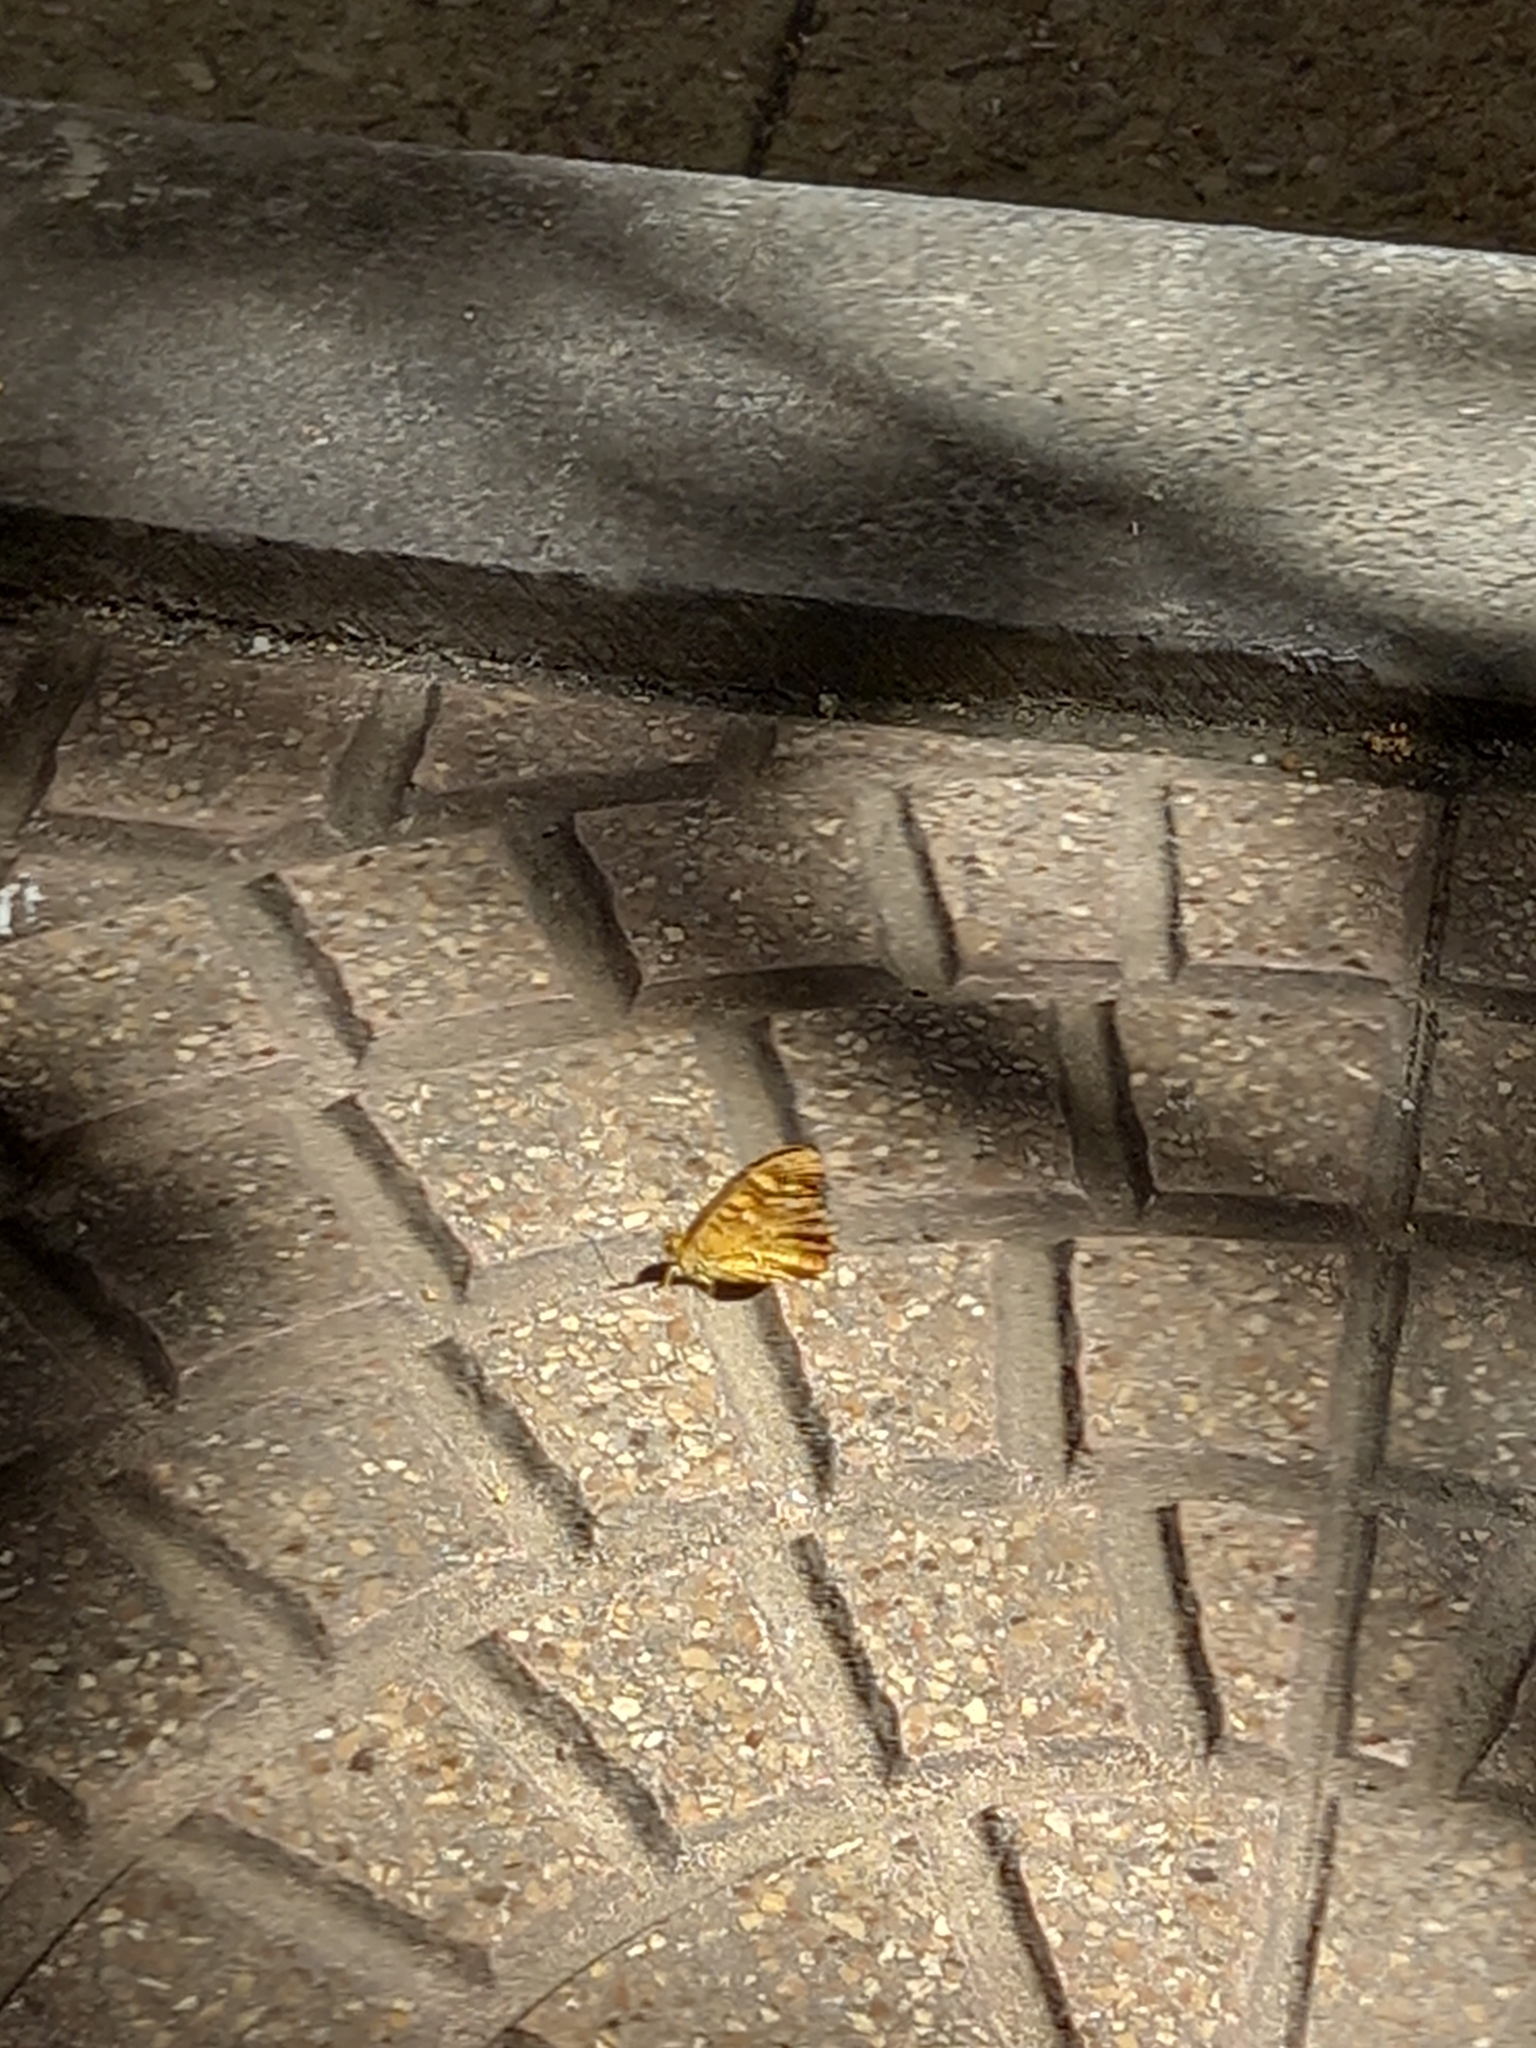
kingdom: Animalia
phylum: Arthropoda
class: Insecta
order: Lepidoptera
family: Nymphalidae
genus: Pararge
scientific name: Pararge aegeria
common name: Speckled wood
